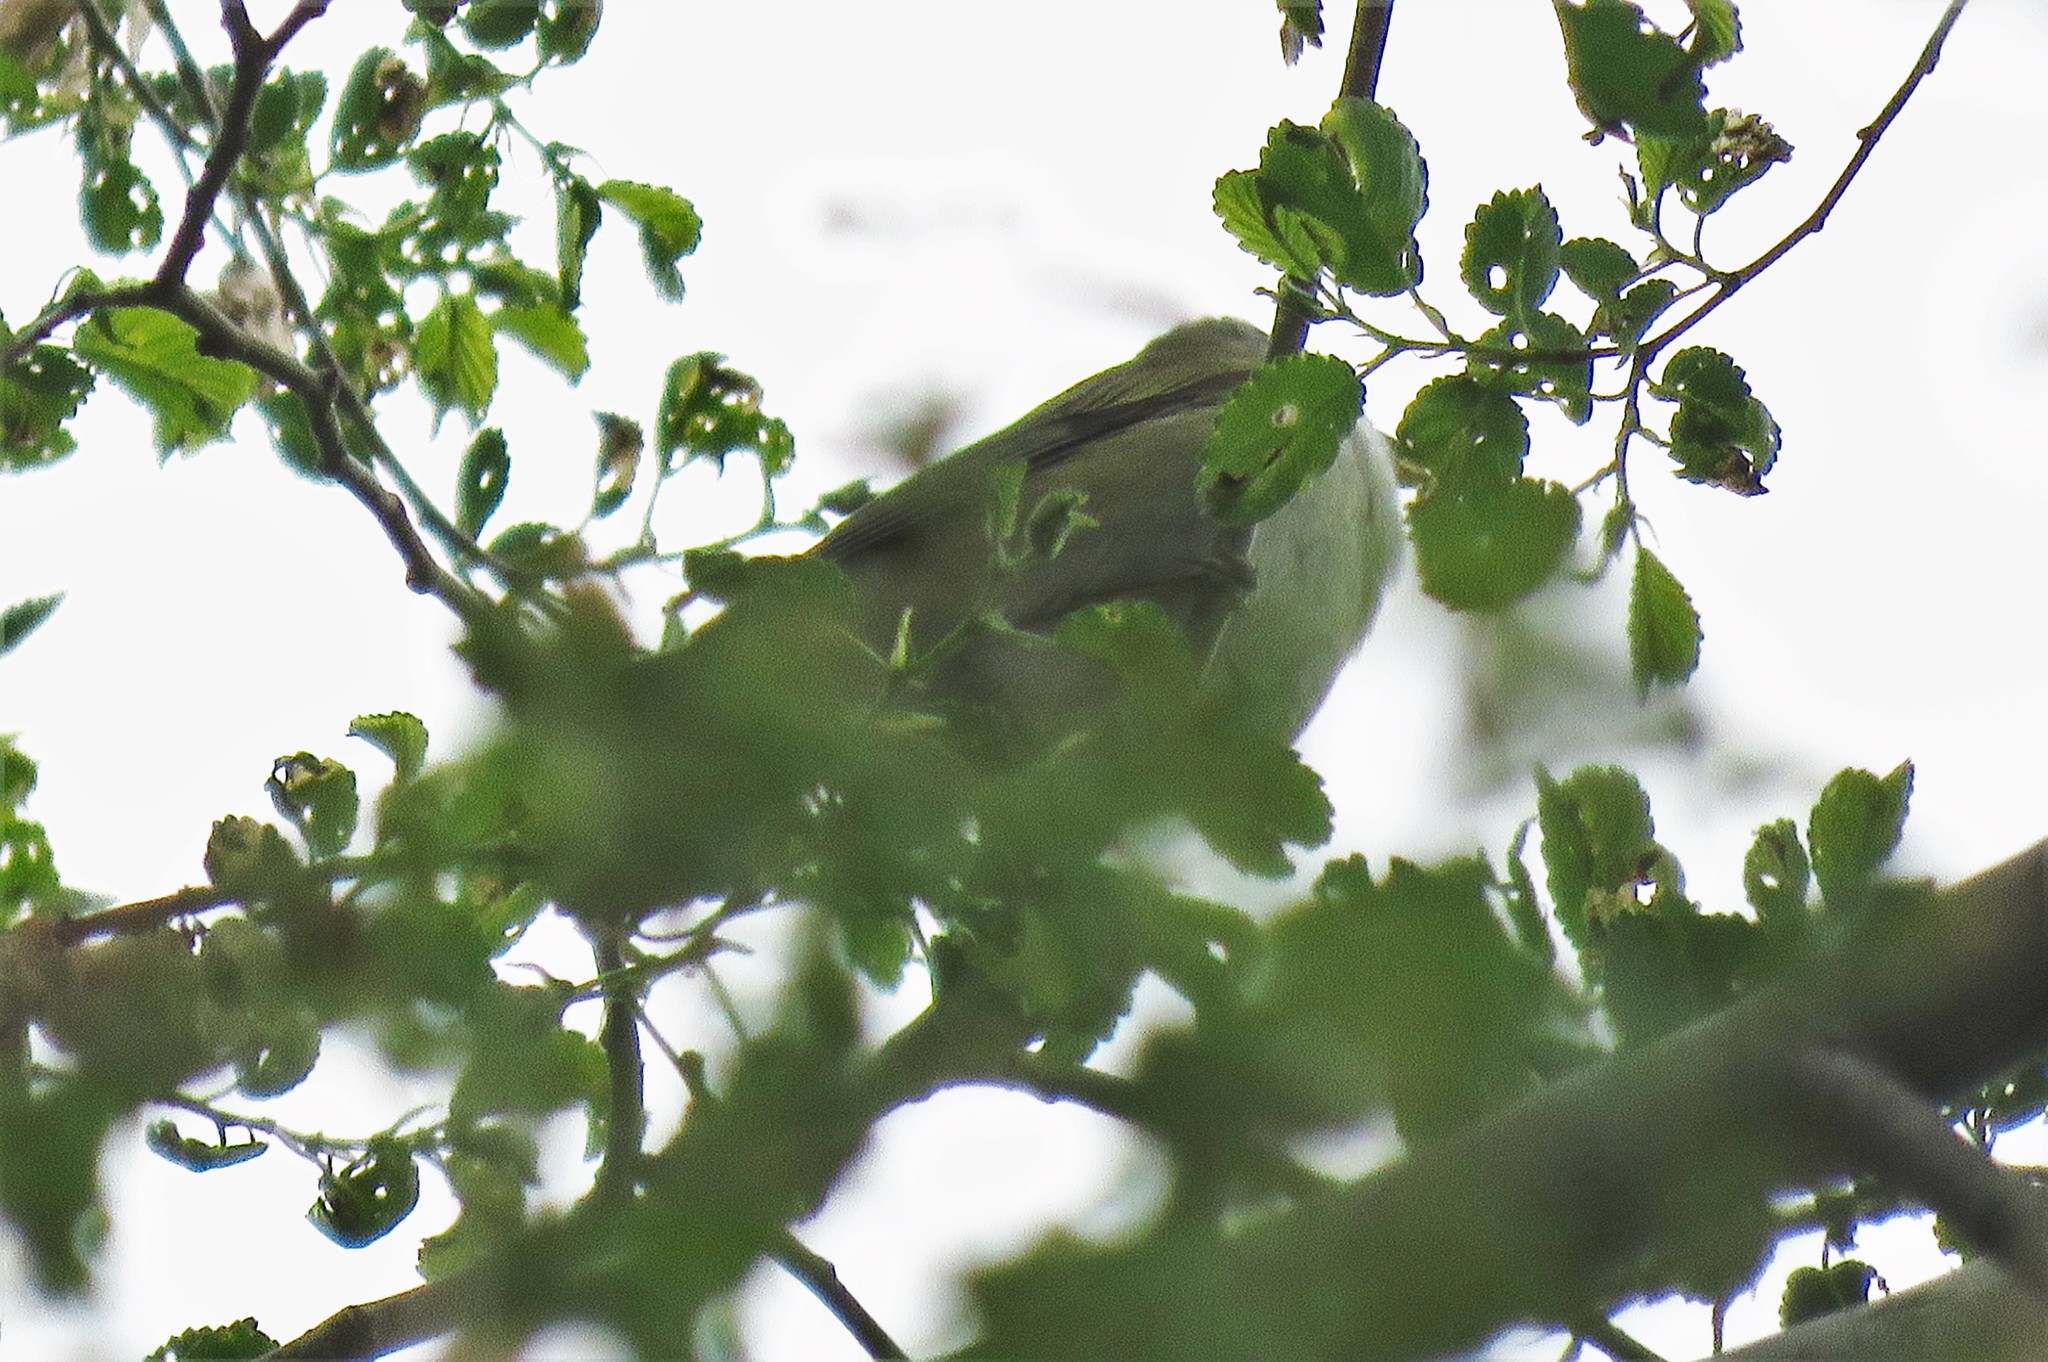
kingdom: Animalia
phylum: Chordata
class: Aves
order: Passeriformes
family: Parulidae
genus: Leiothlypis
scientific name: Leiothlypis peregrina
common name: Tennessee warbler
